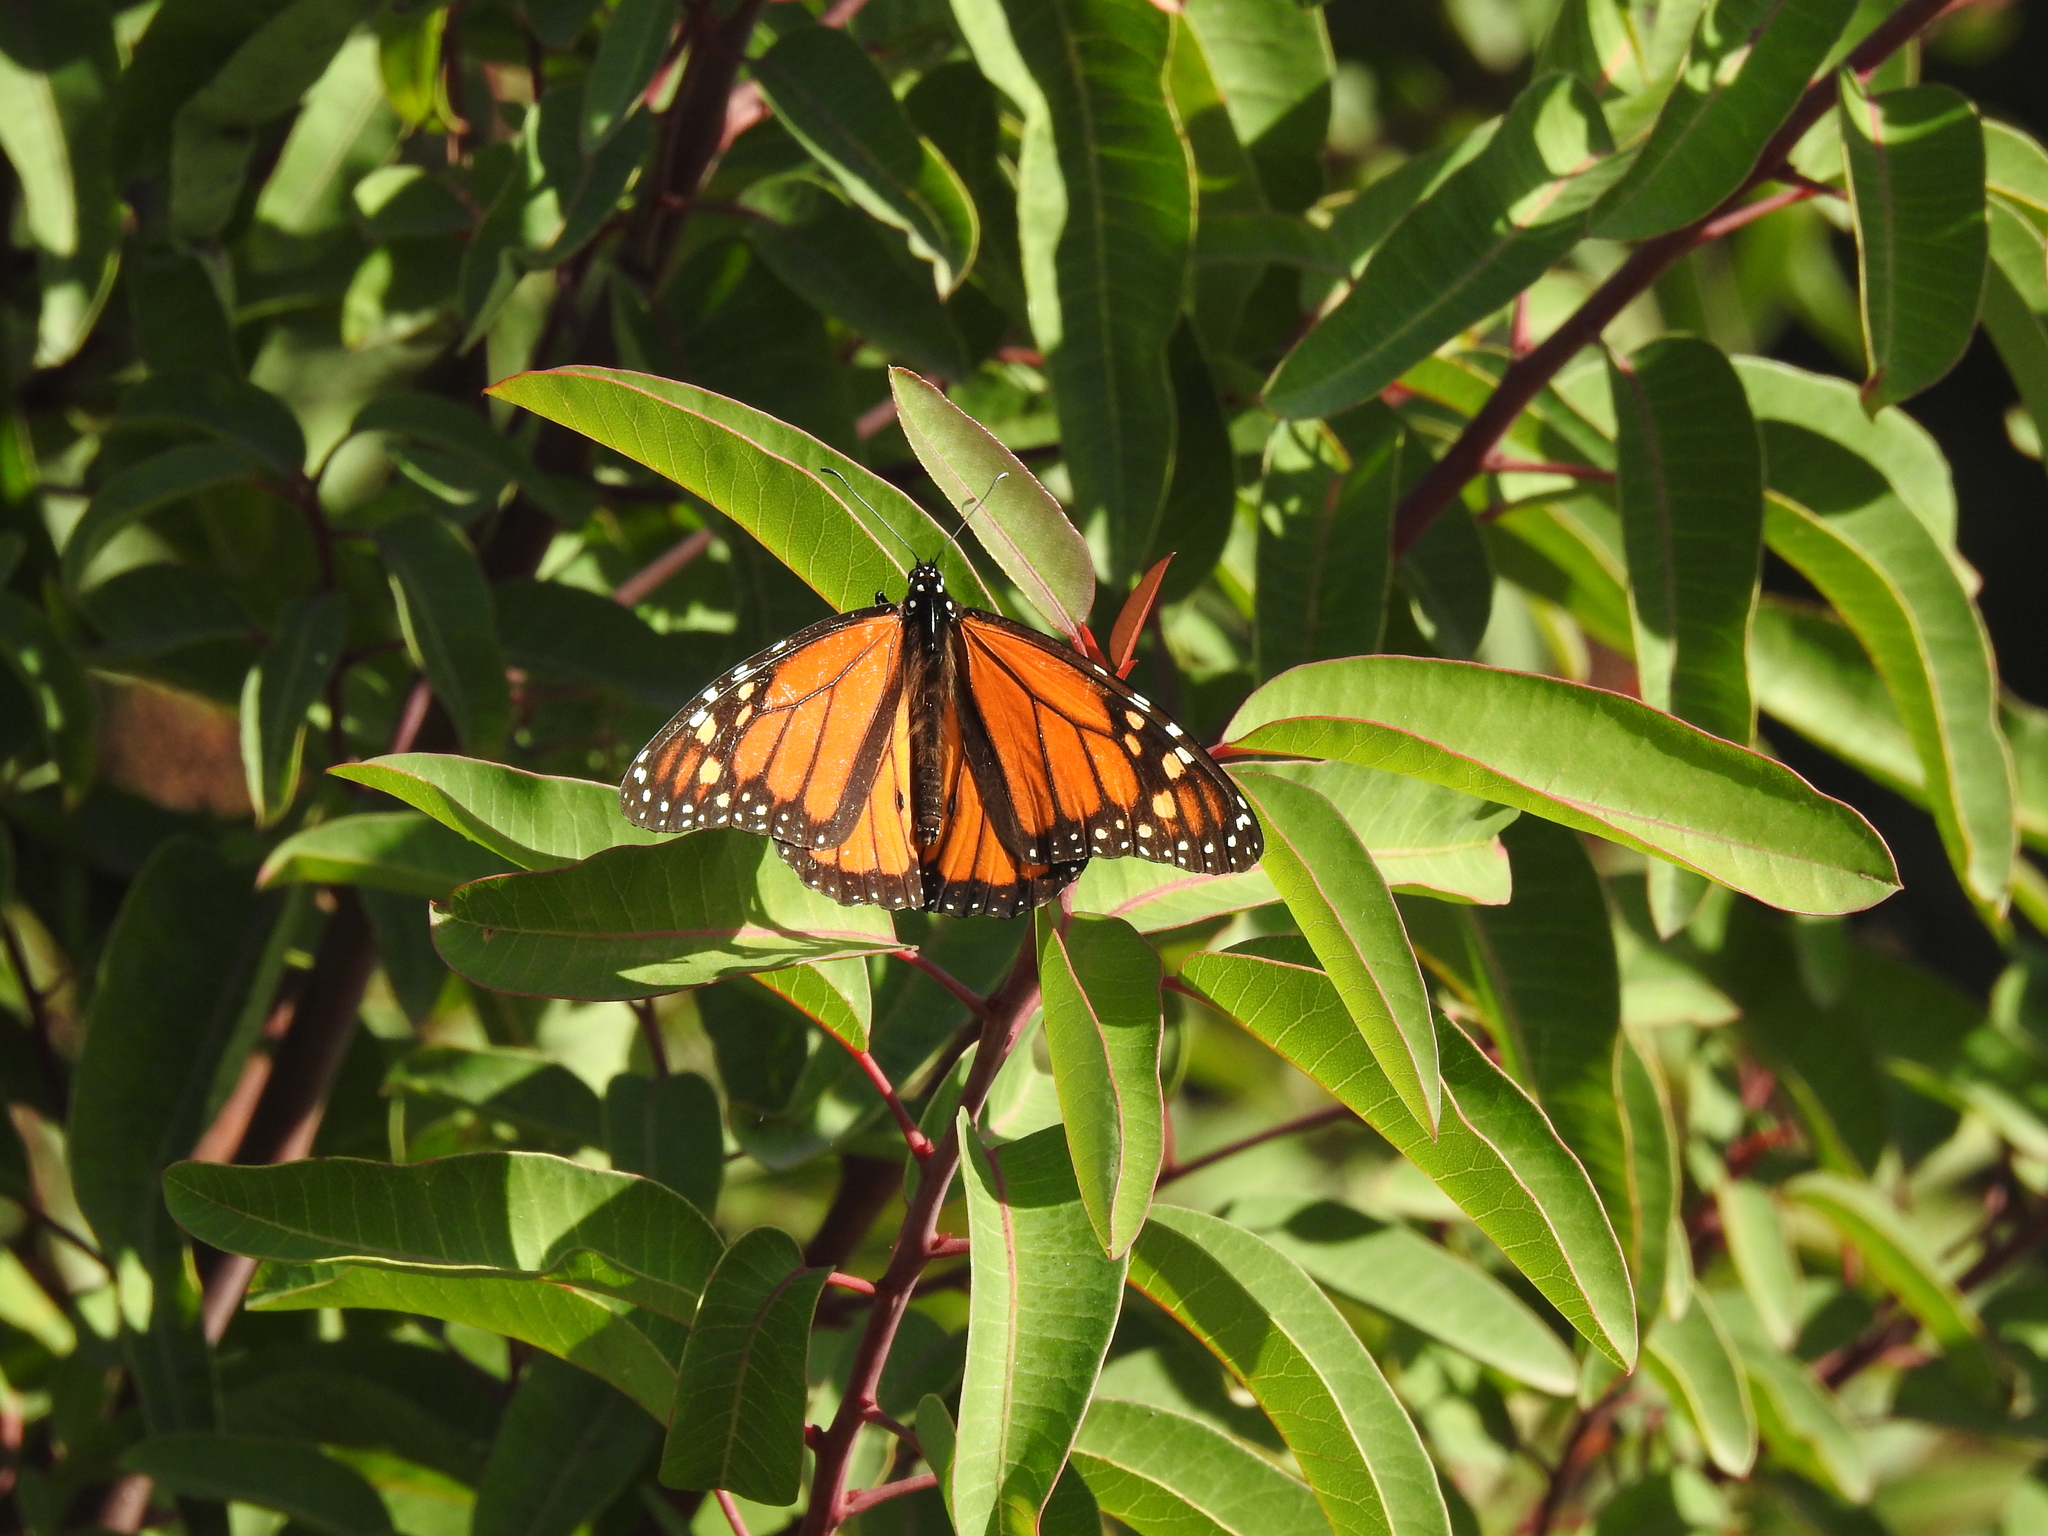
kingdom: Animalia
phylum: Arthropoda
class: Insecta
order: Lepidoptera
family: Nymphalidae
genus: Danaus
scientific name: Danaus plexippus
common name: Monarch
